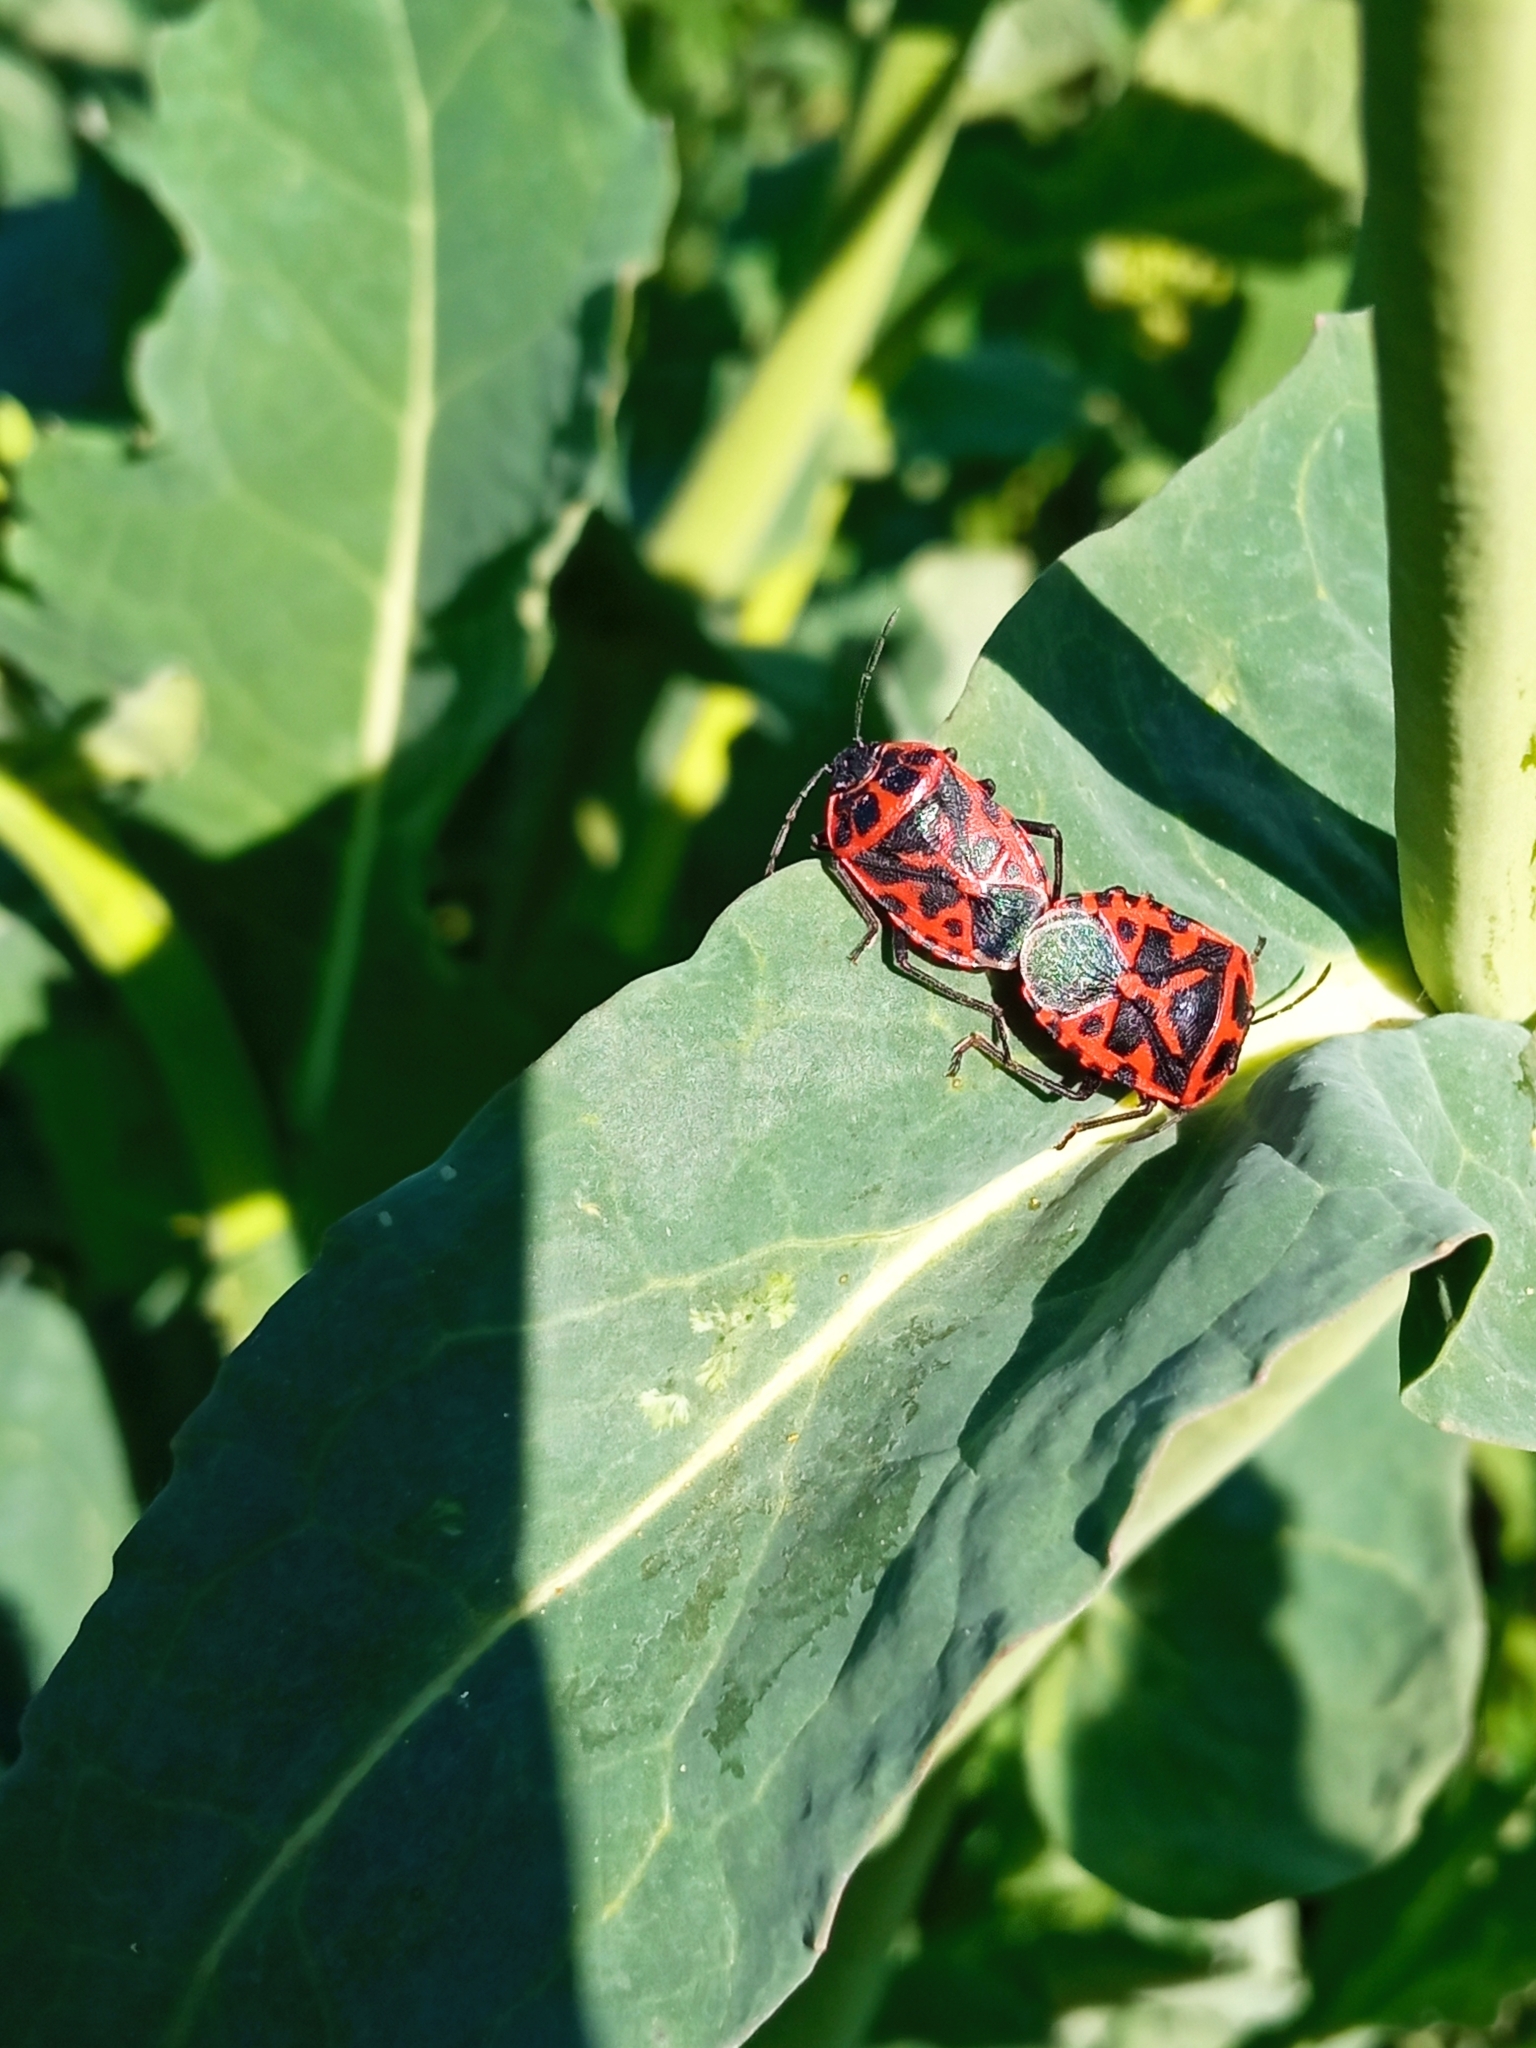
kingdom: Animalia
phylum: Arthropoda
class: Insecta
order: Hemiptera
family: Pentatomidae
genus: Eurydema
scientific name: Eurydema ventralis
